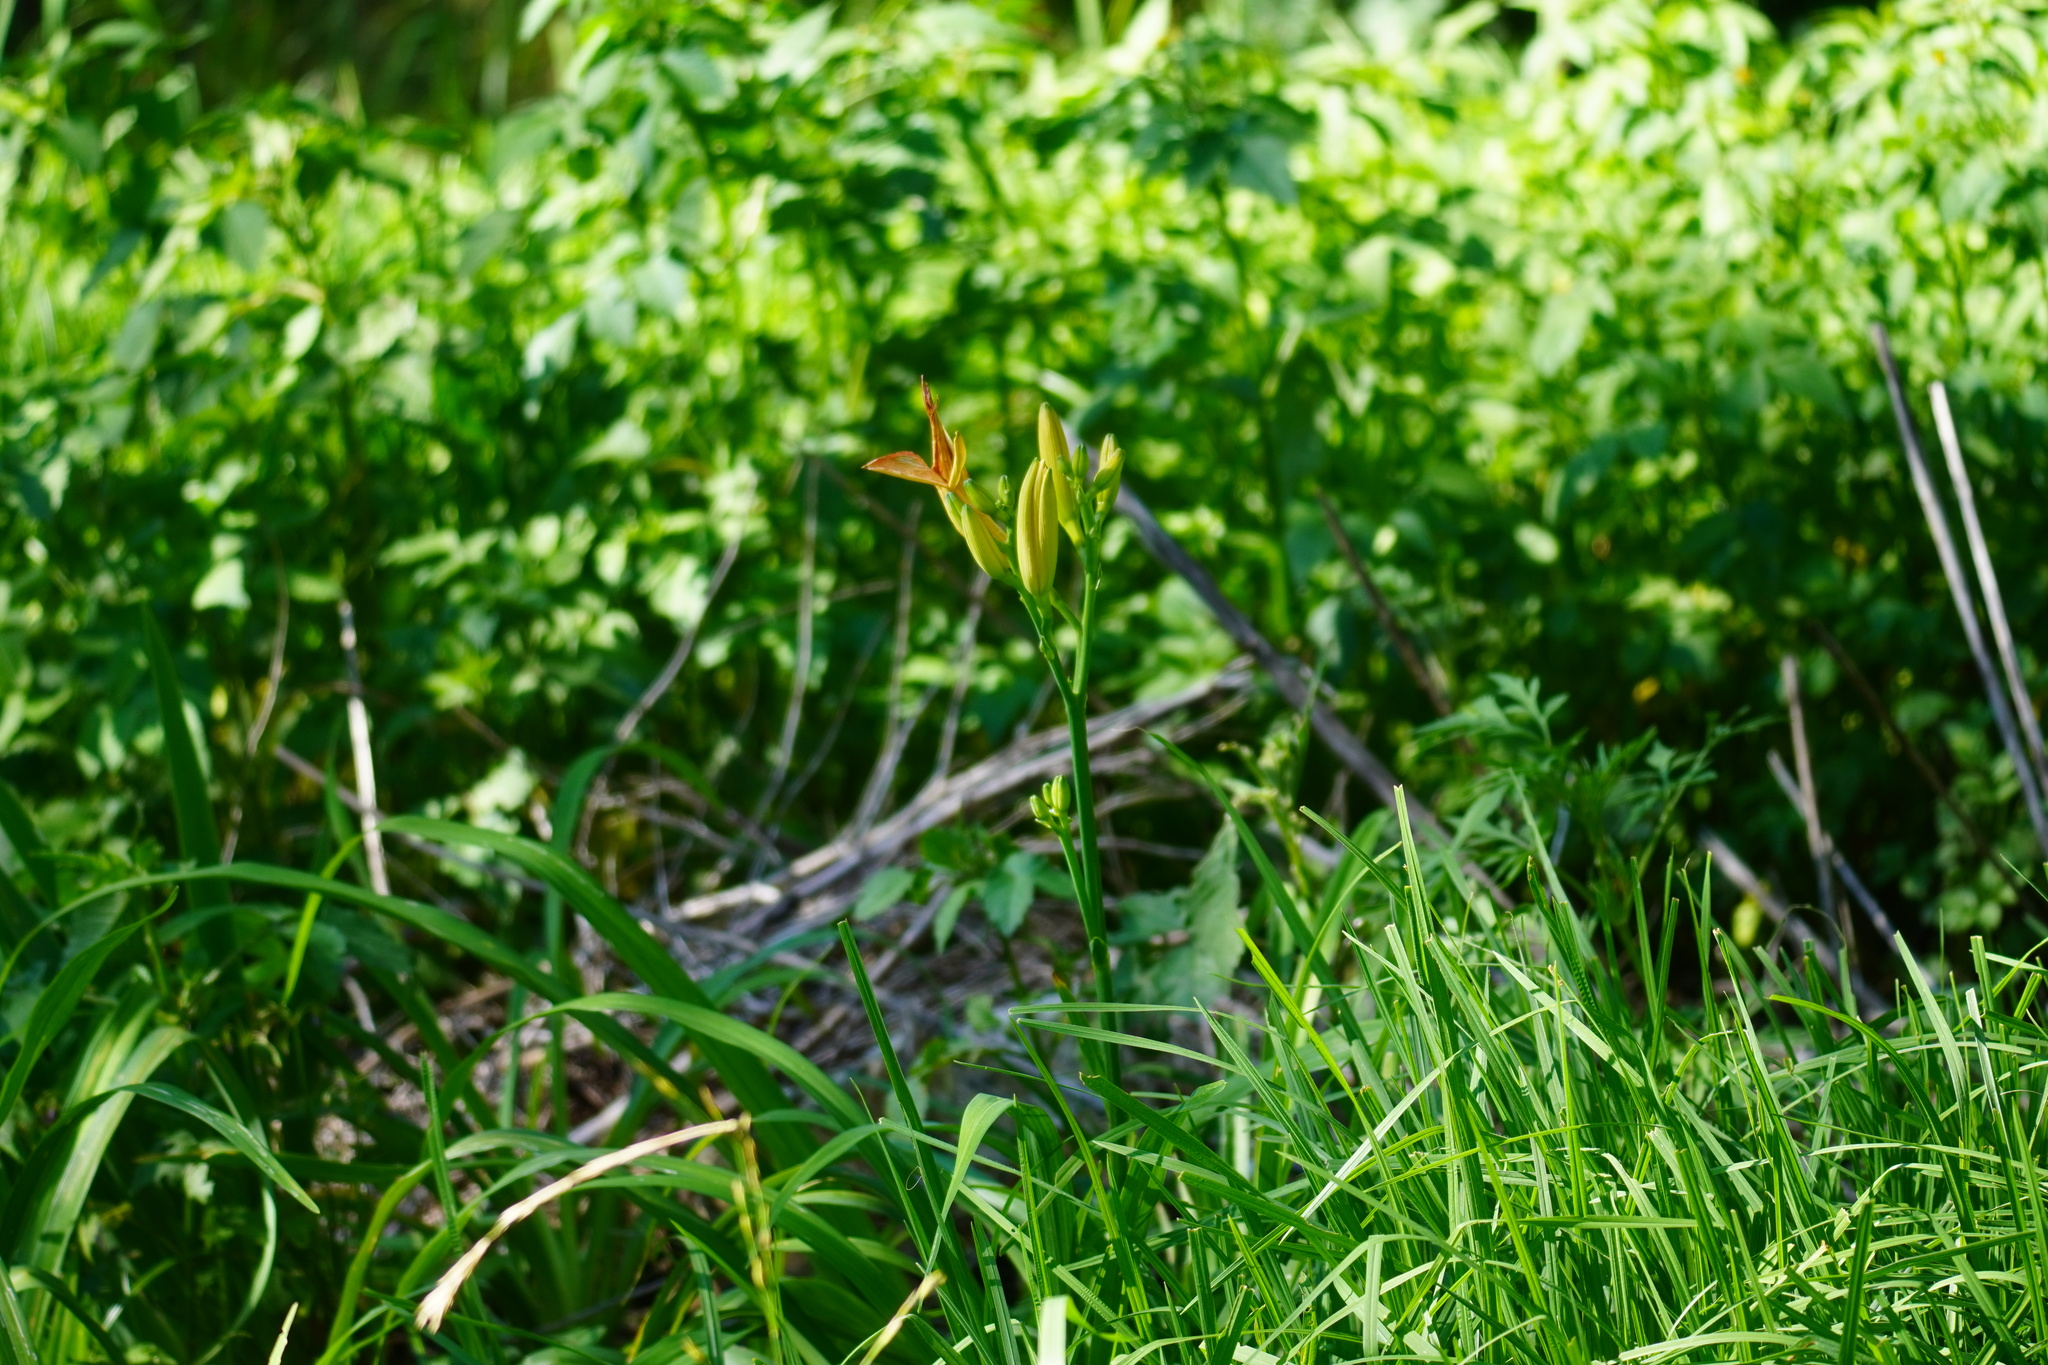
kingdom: Plantae
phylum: Tracheophyta
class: Liliopsida
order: Asparagales
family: Asphodelaceae
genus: Hemerocallis
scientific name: Hemerocallis fulva
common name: Orange day-lily
